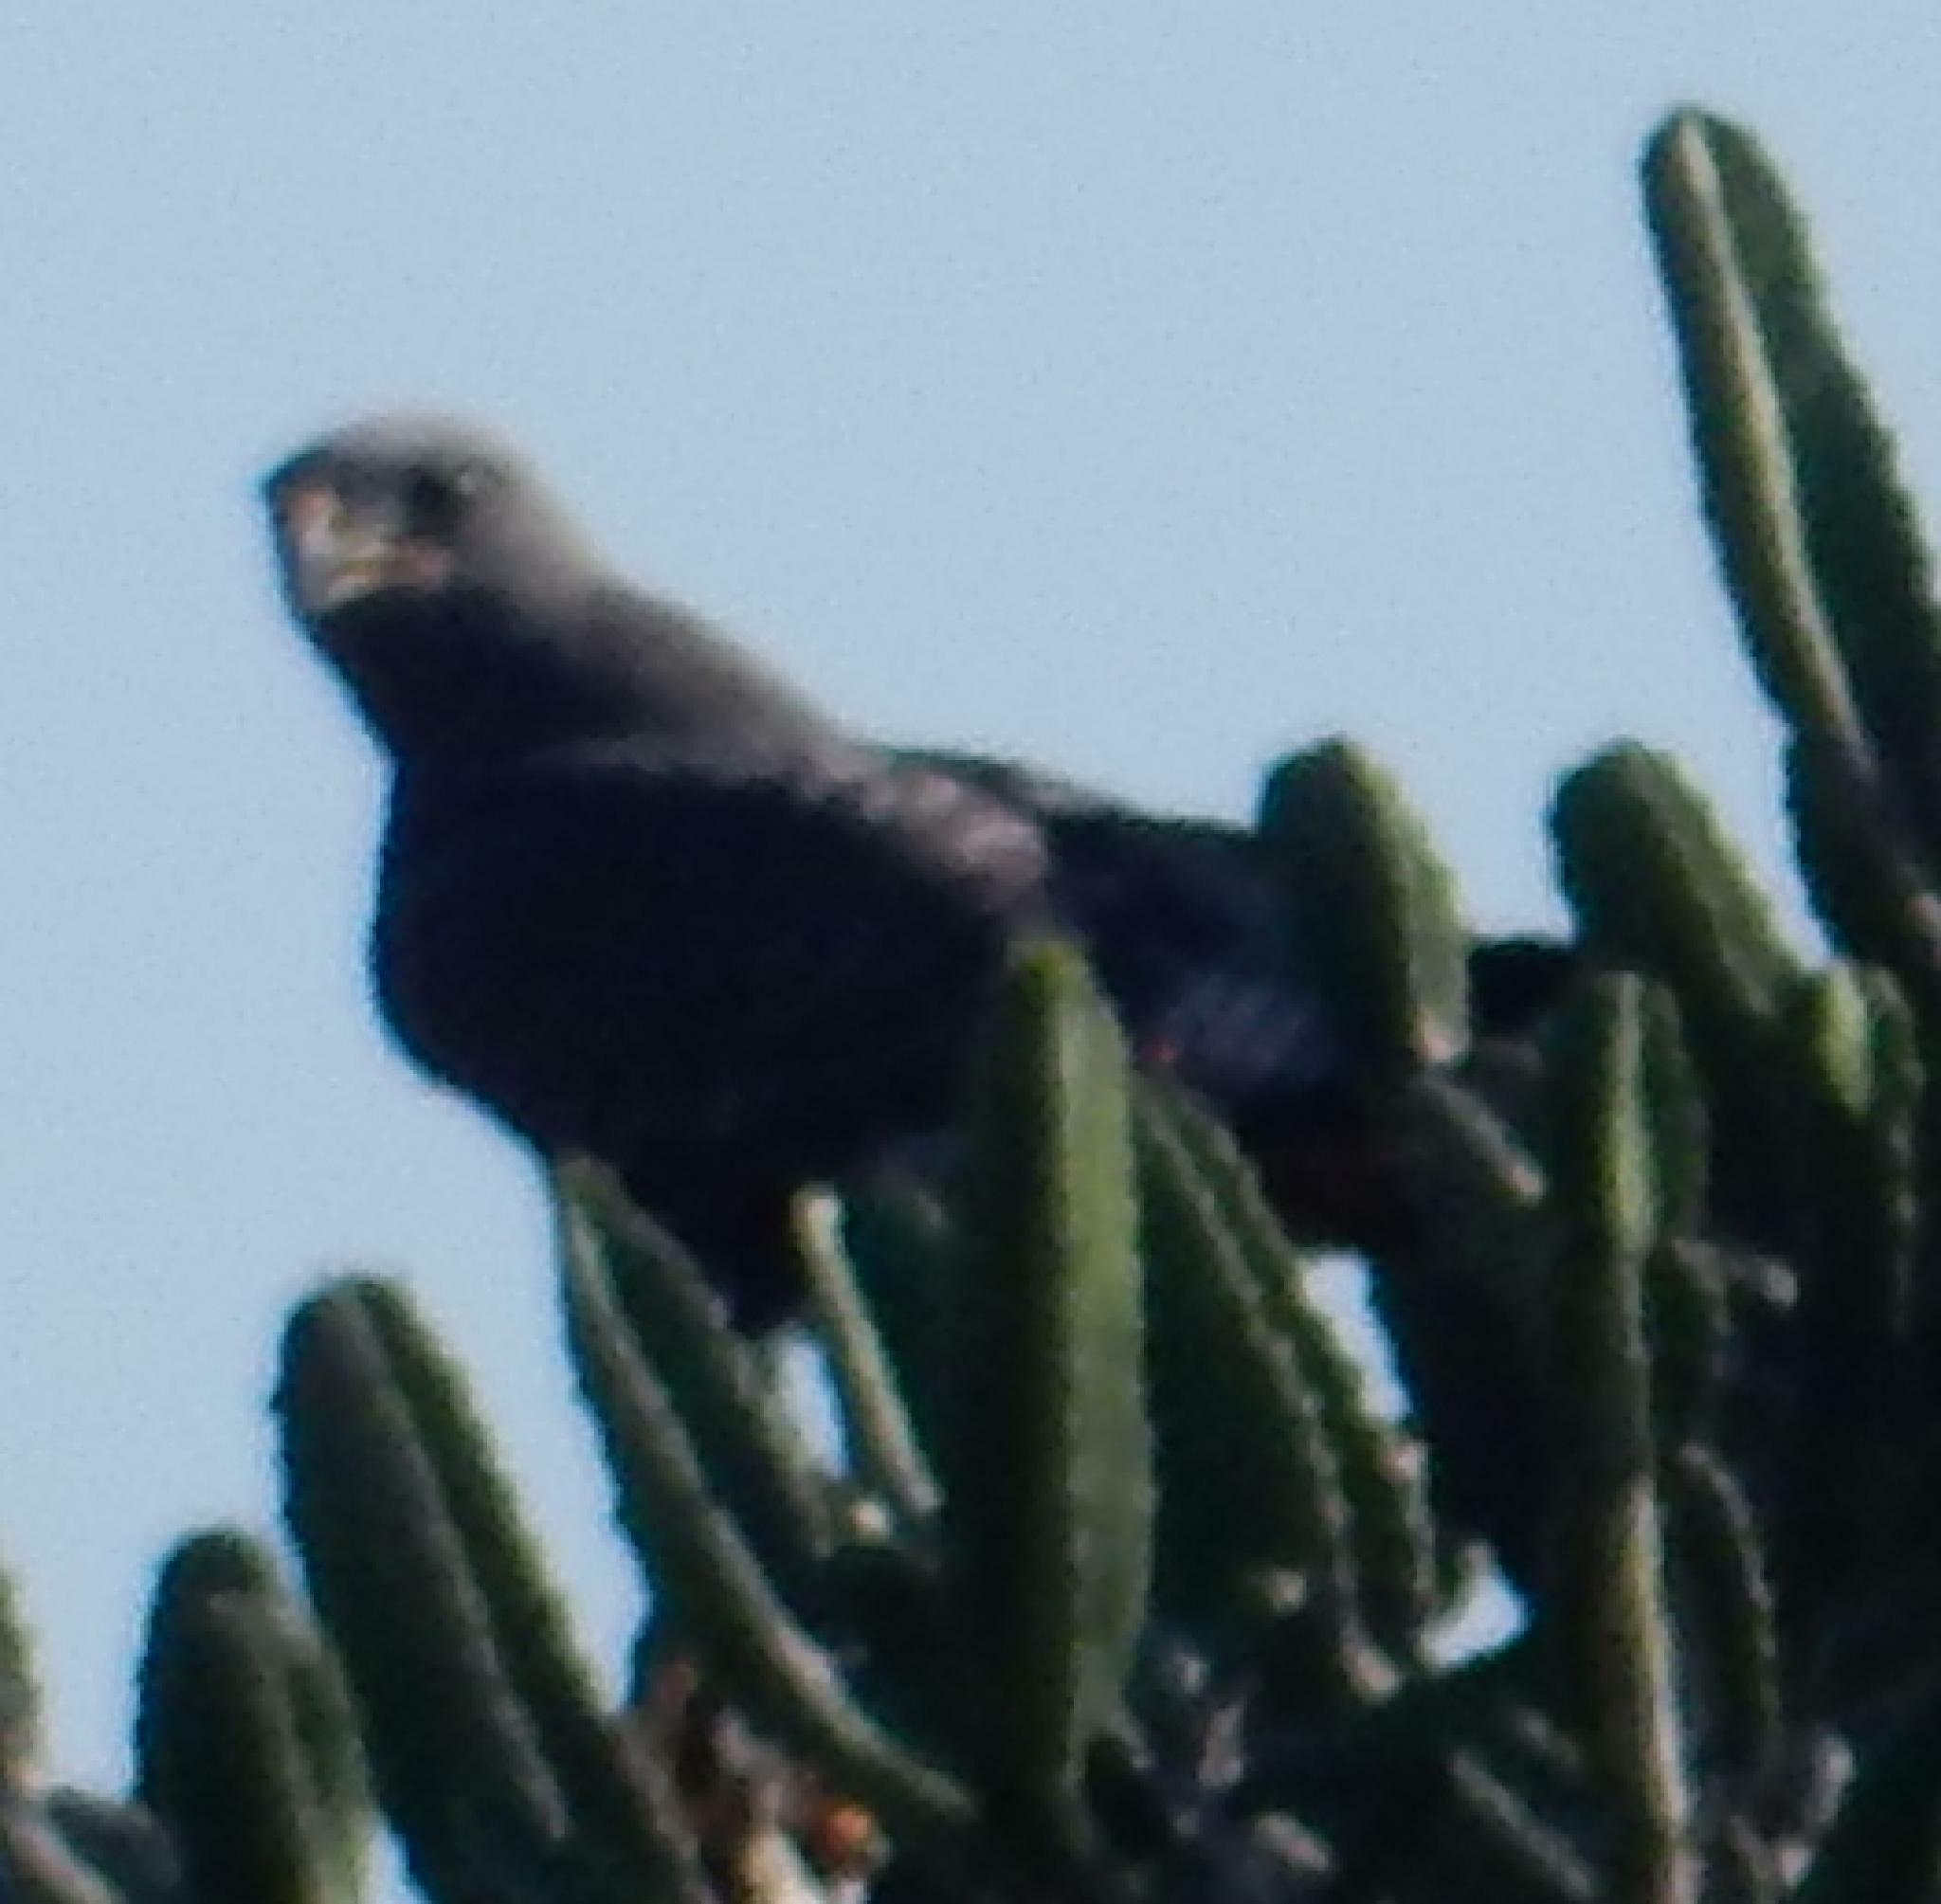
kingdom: Animalia
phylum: Chordata
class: Aves
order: Accipitriformes
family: Accipitridae
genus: Buteo
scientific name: Buteo rufofuscus
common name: Jackal buzzard
